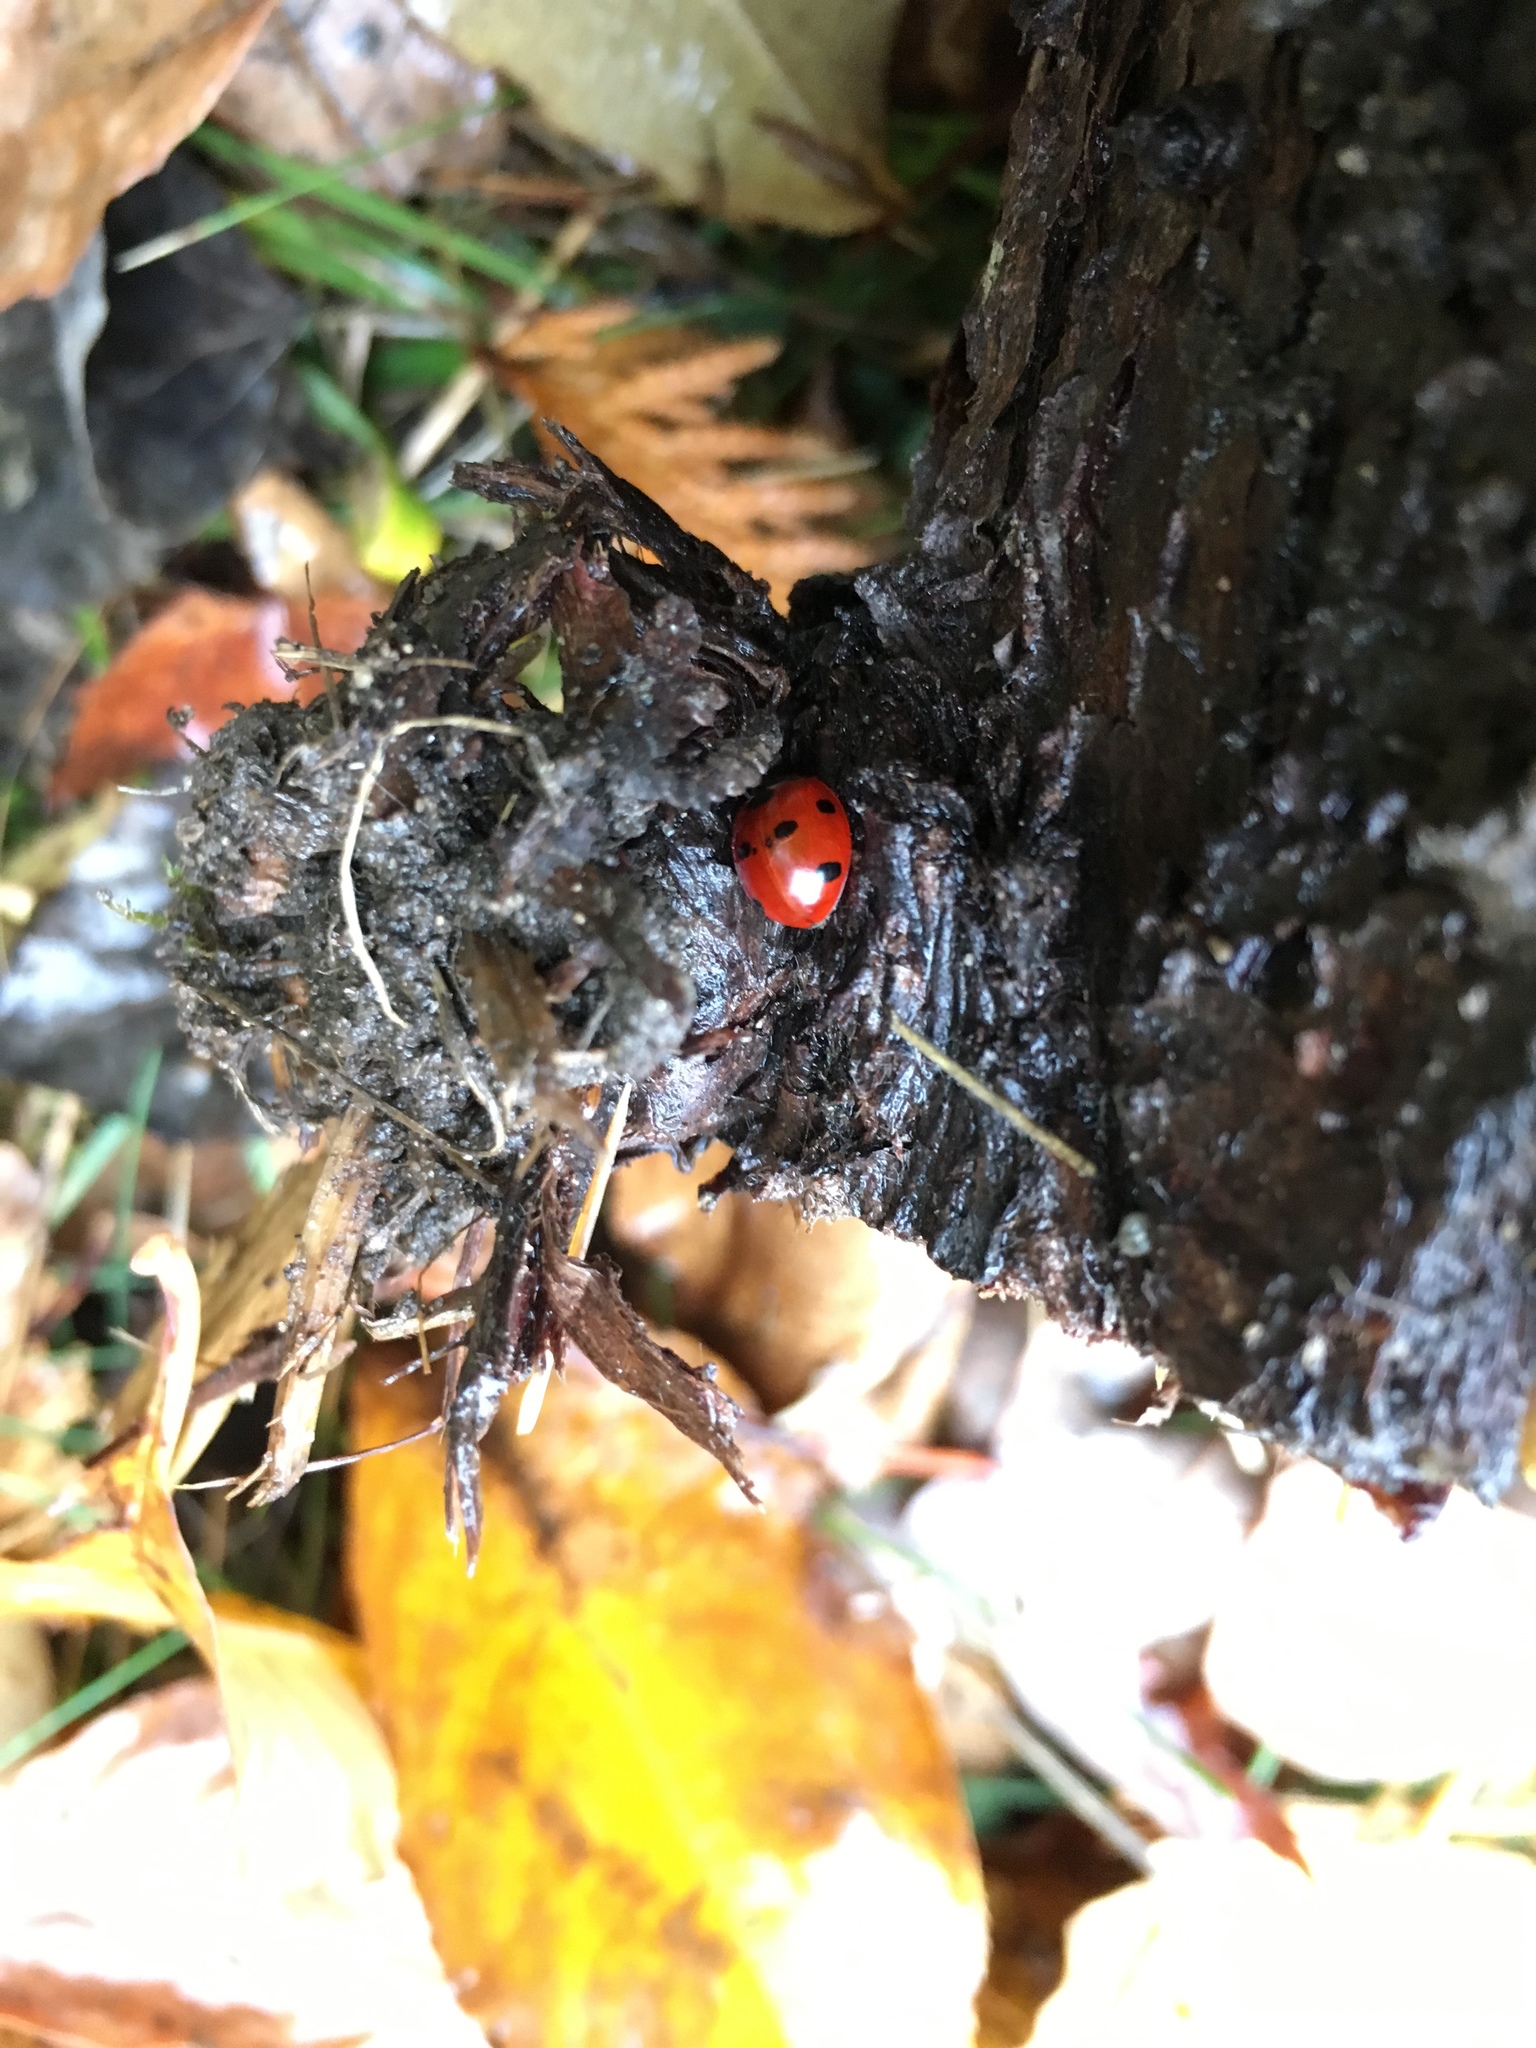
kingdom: Animalia
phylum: Arthropoda
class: Insecta
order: Coleoptera
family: Coccinellidae
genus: Coccinella
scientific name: Coccinella septempunctata
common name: Sevenspotted lady beetle
